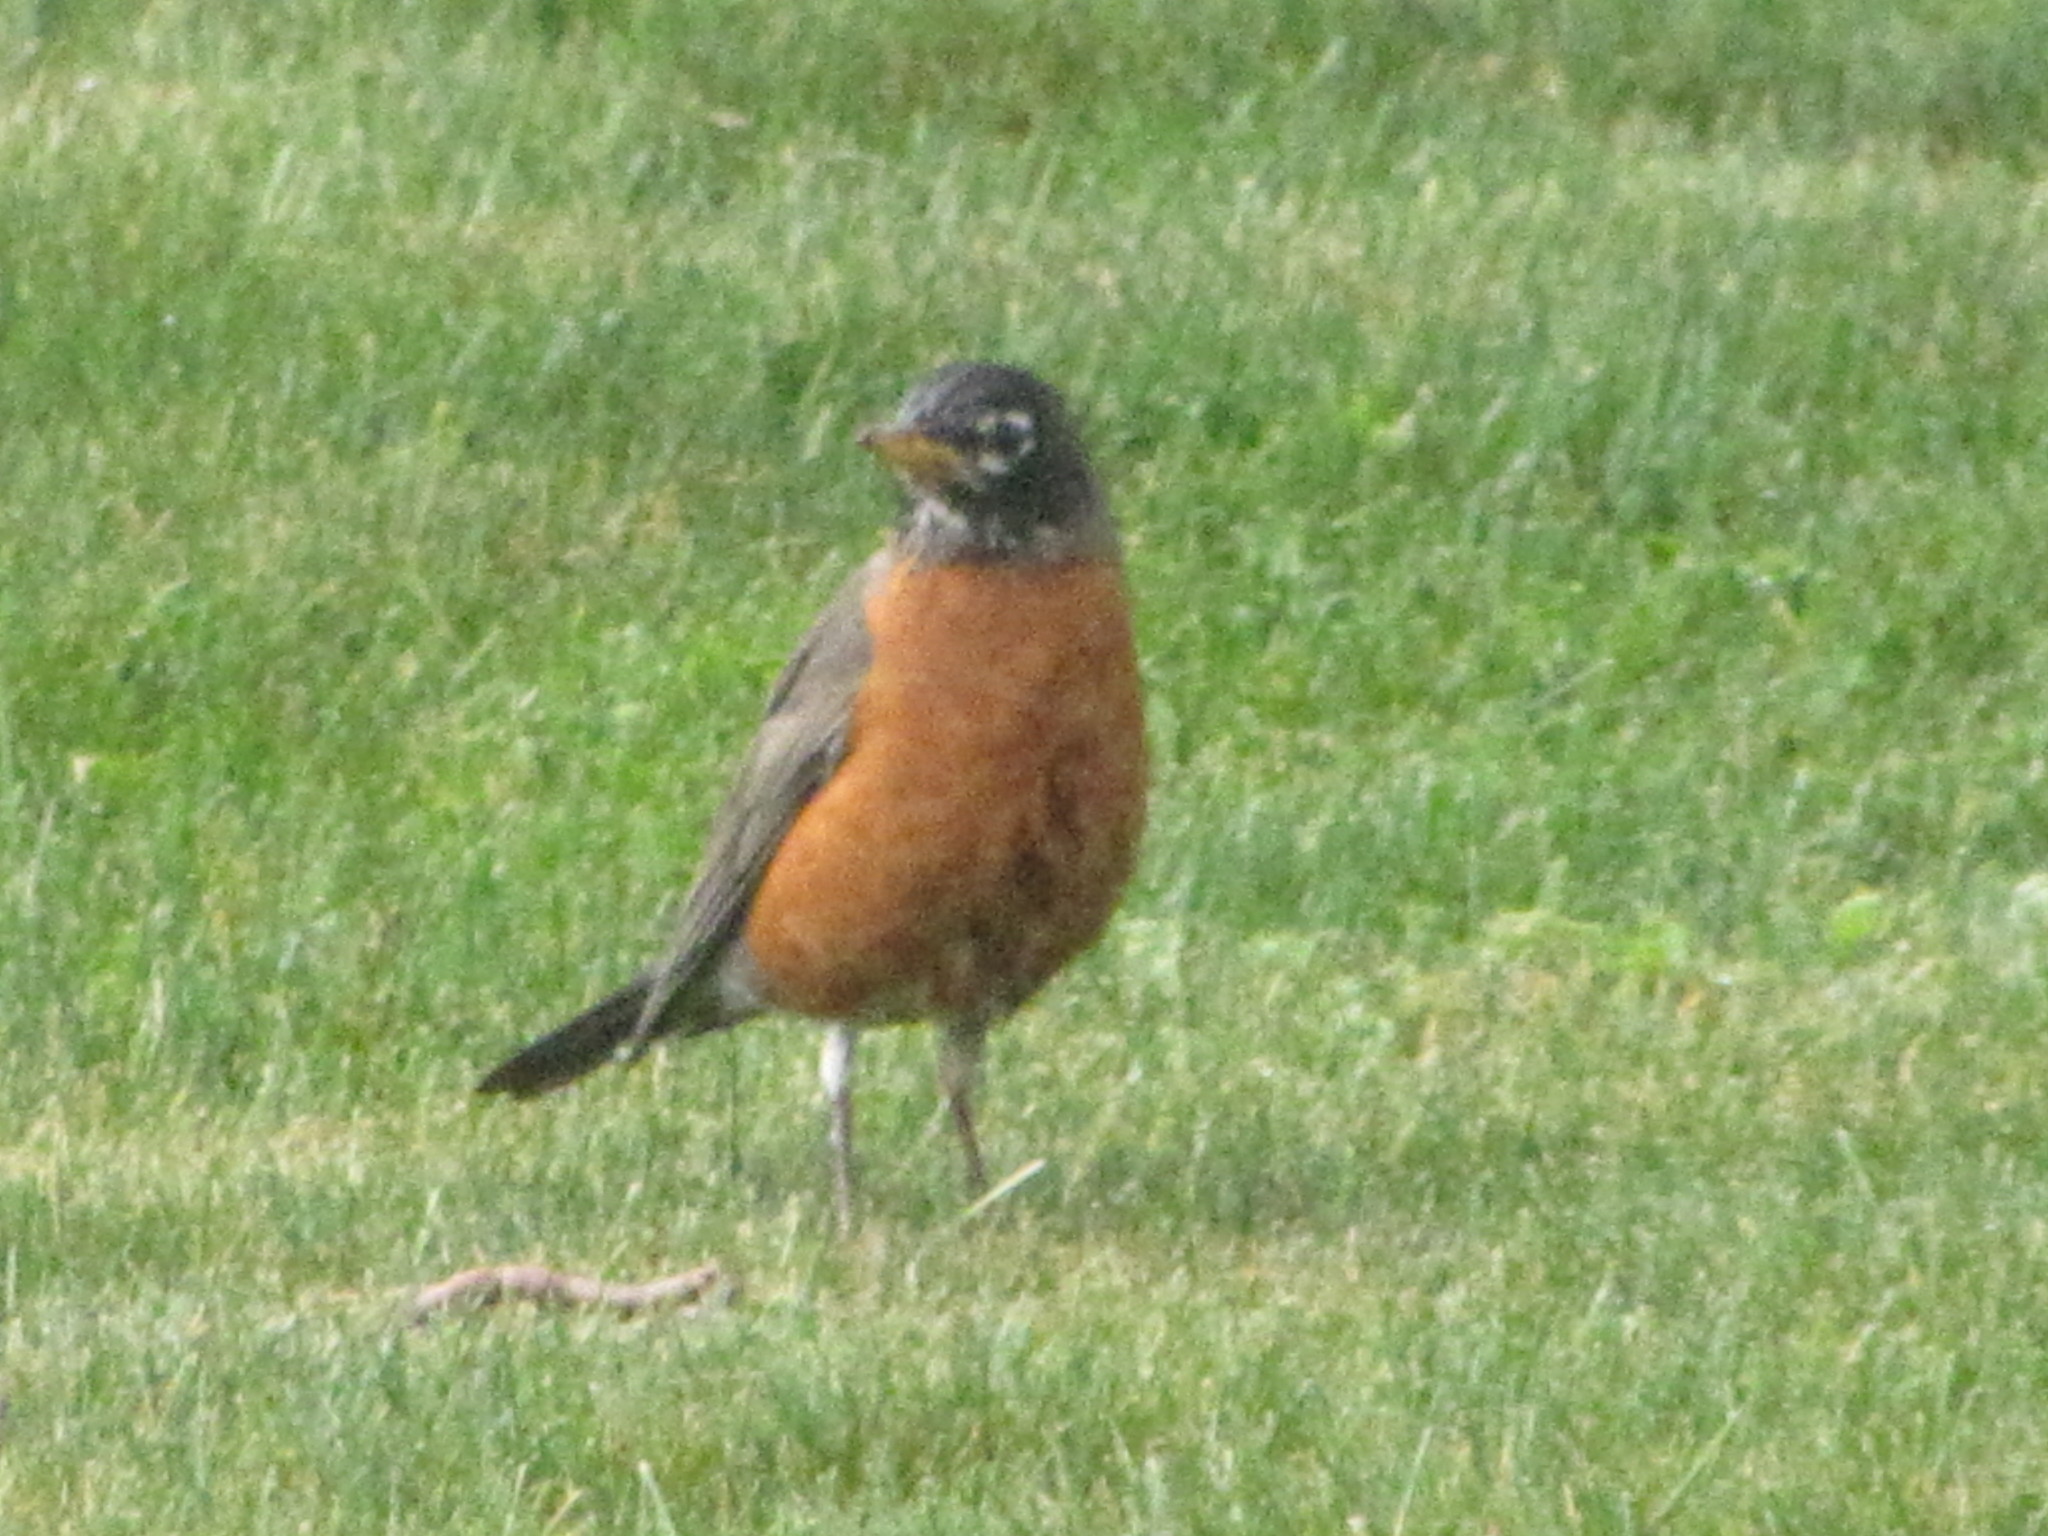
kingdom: Animalia
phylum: Chordata
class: Aves
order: Passeriformes
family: Turdidae
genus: Turdus
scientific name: Turdus migratorius
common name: American robin
